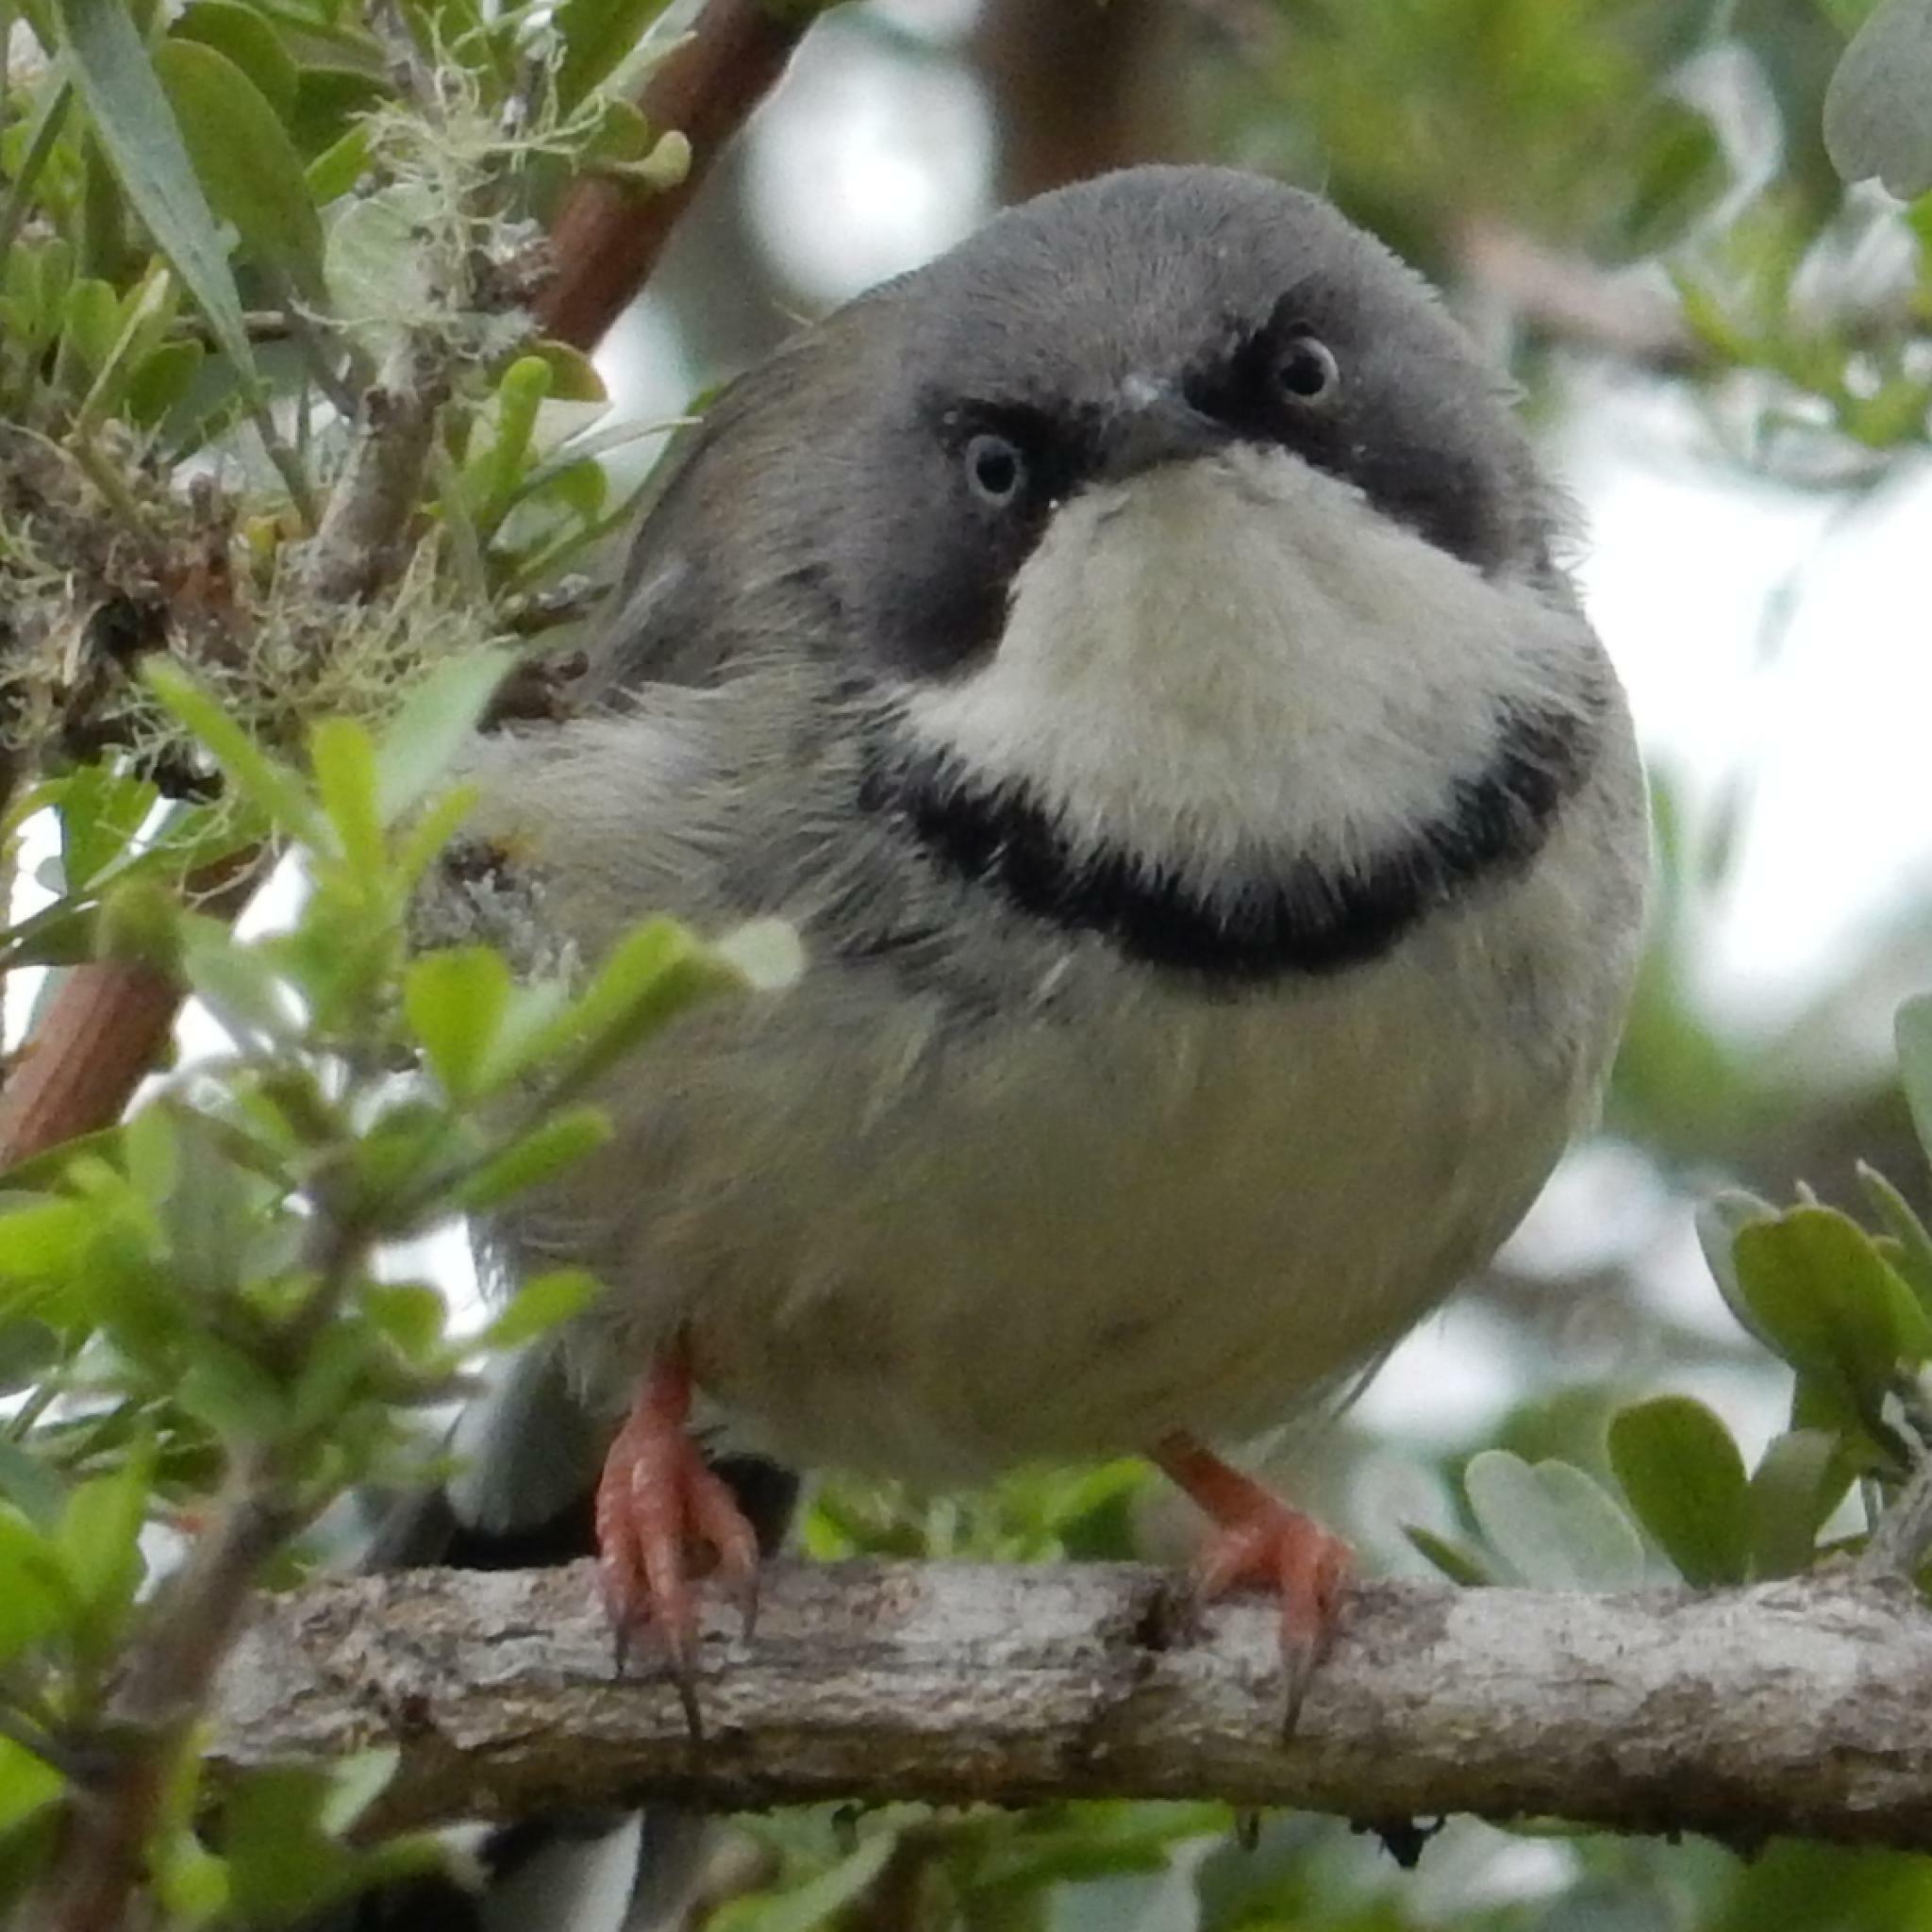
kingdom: Animalia
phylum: Chordata
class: Aves
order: Passeriformes
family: Cisticolidae
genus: Apalis
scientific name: Apalis thoracica
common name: Bar-throated apalis
